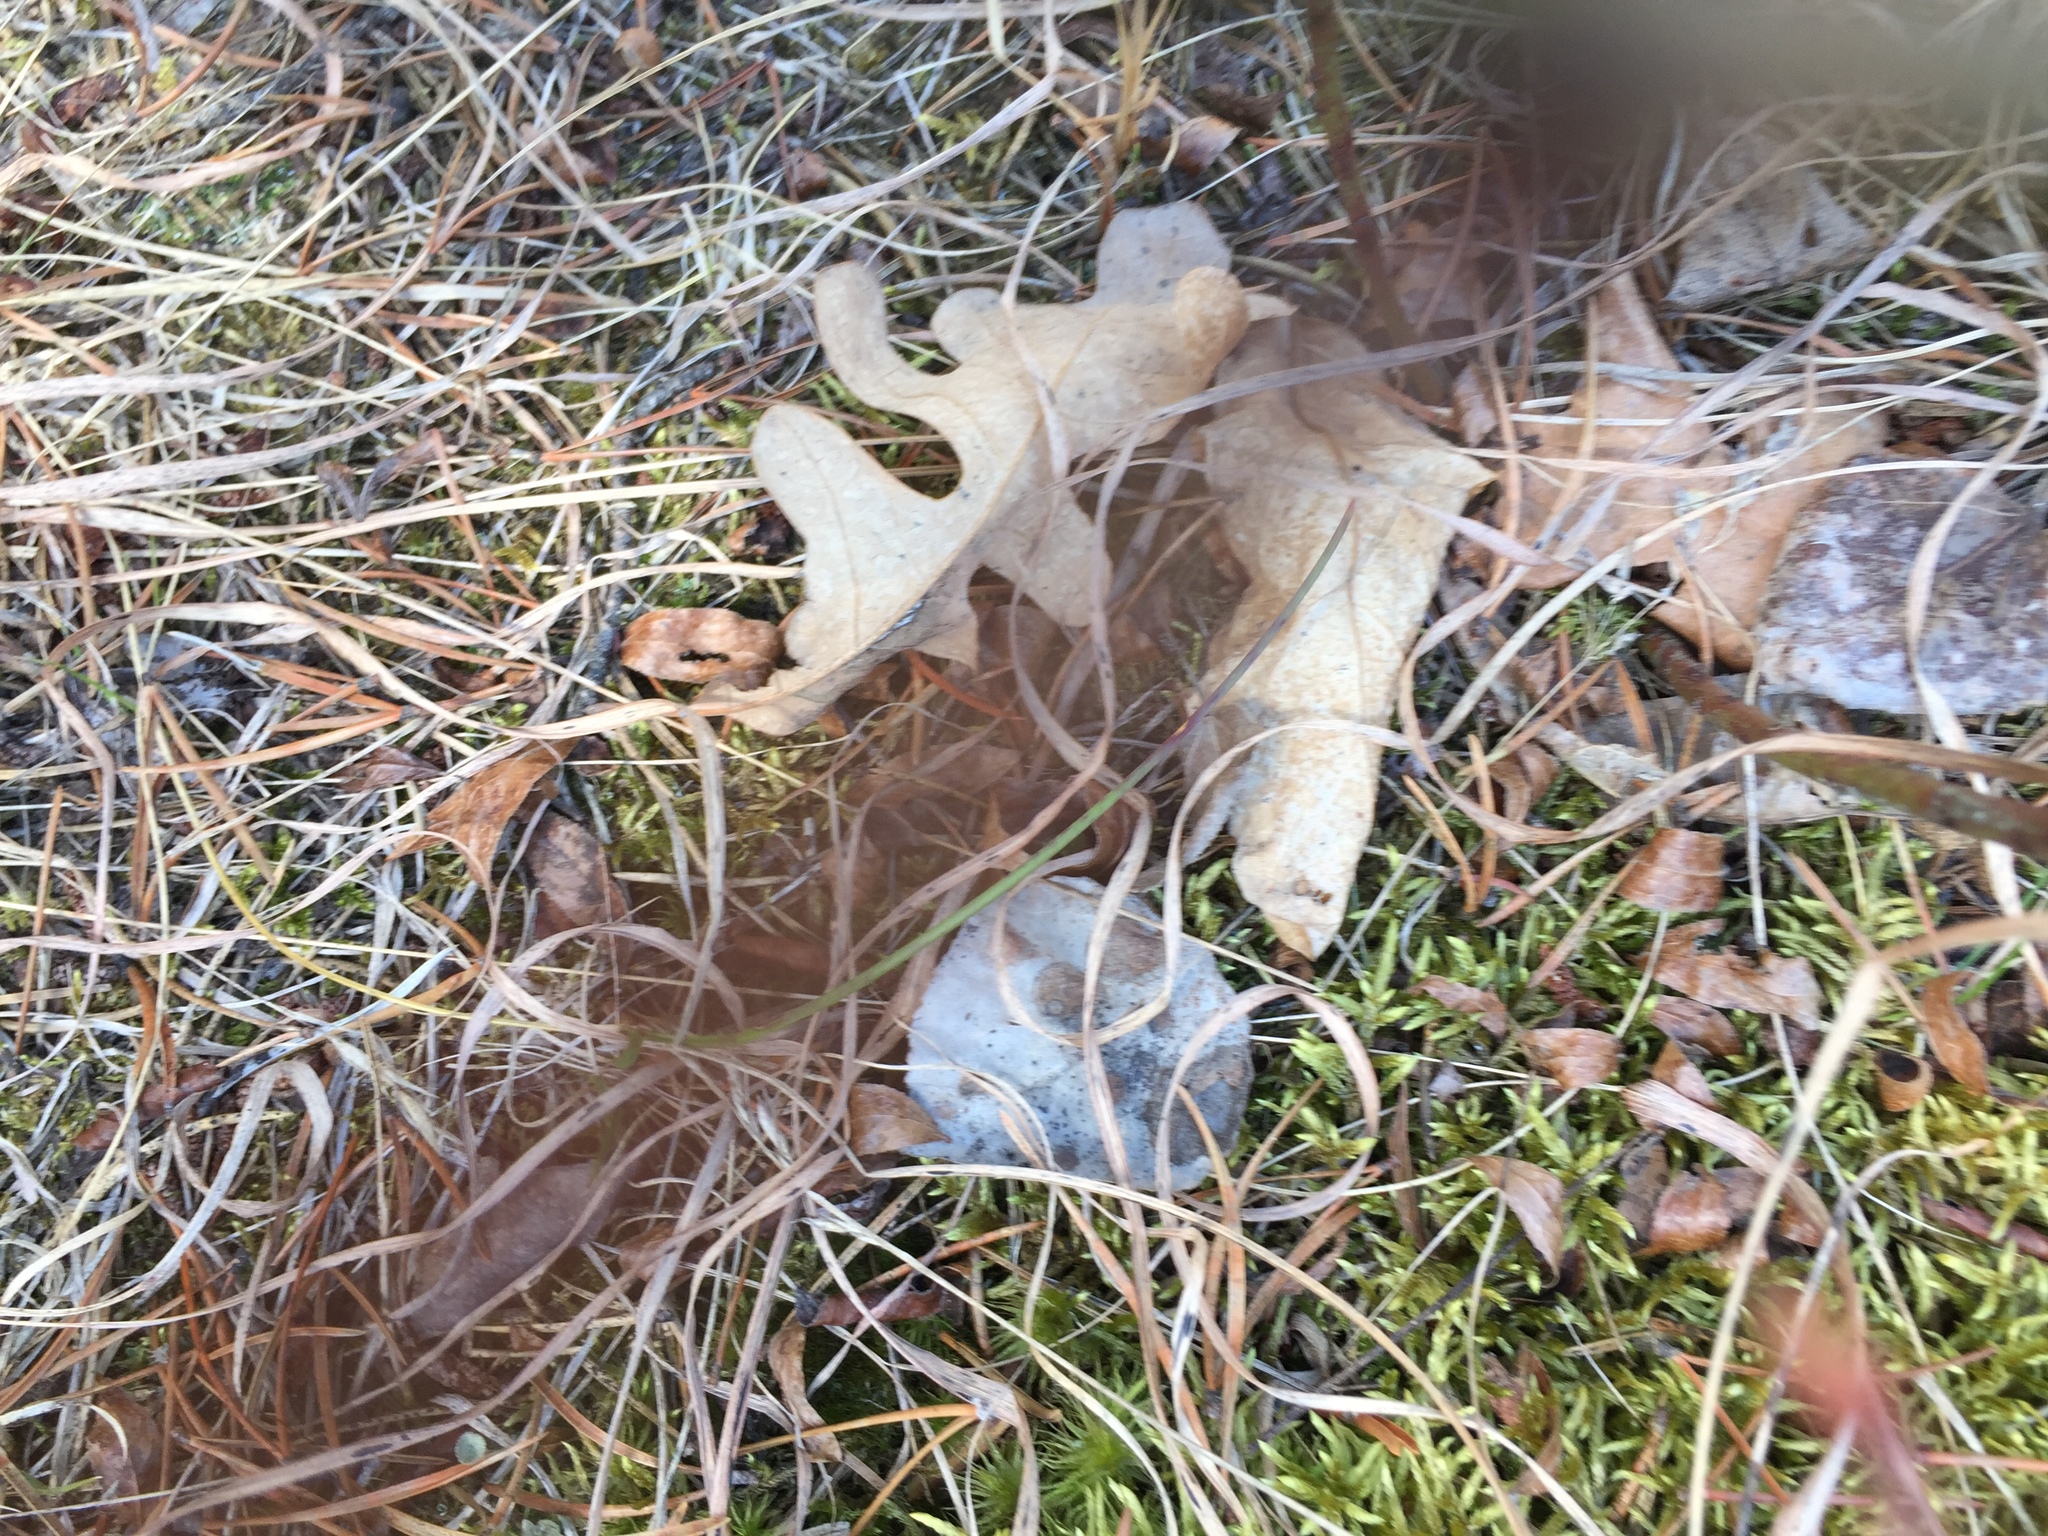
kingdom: Plantae
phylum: Tracheophyta
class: Magnoliopsida
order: Fagales
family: Fagaceae
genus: Quercus
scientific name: Quercus macrocarpa
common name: Bur oak
